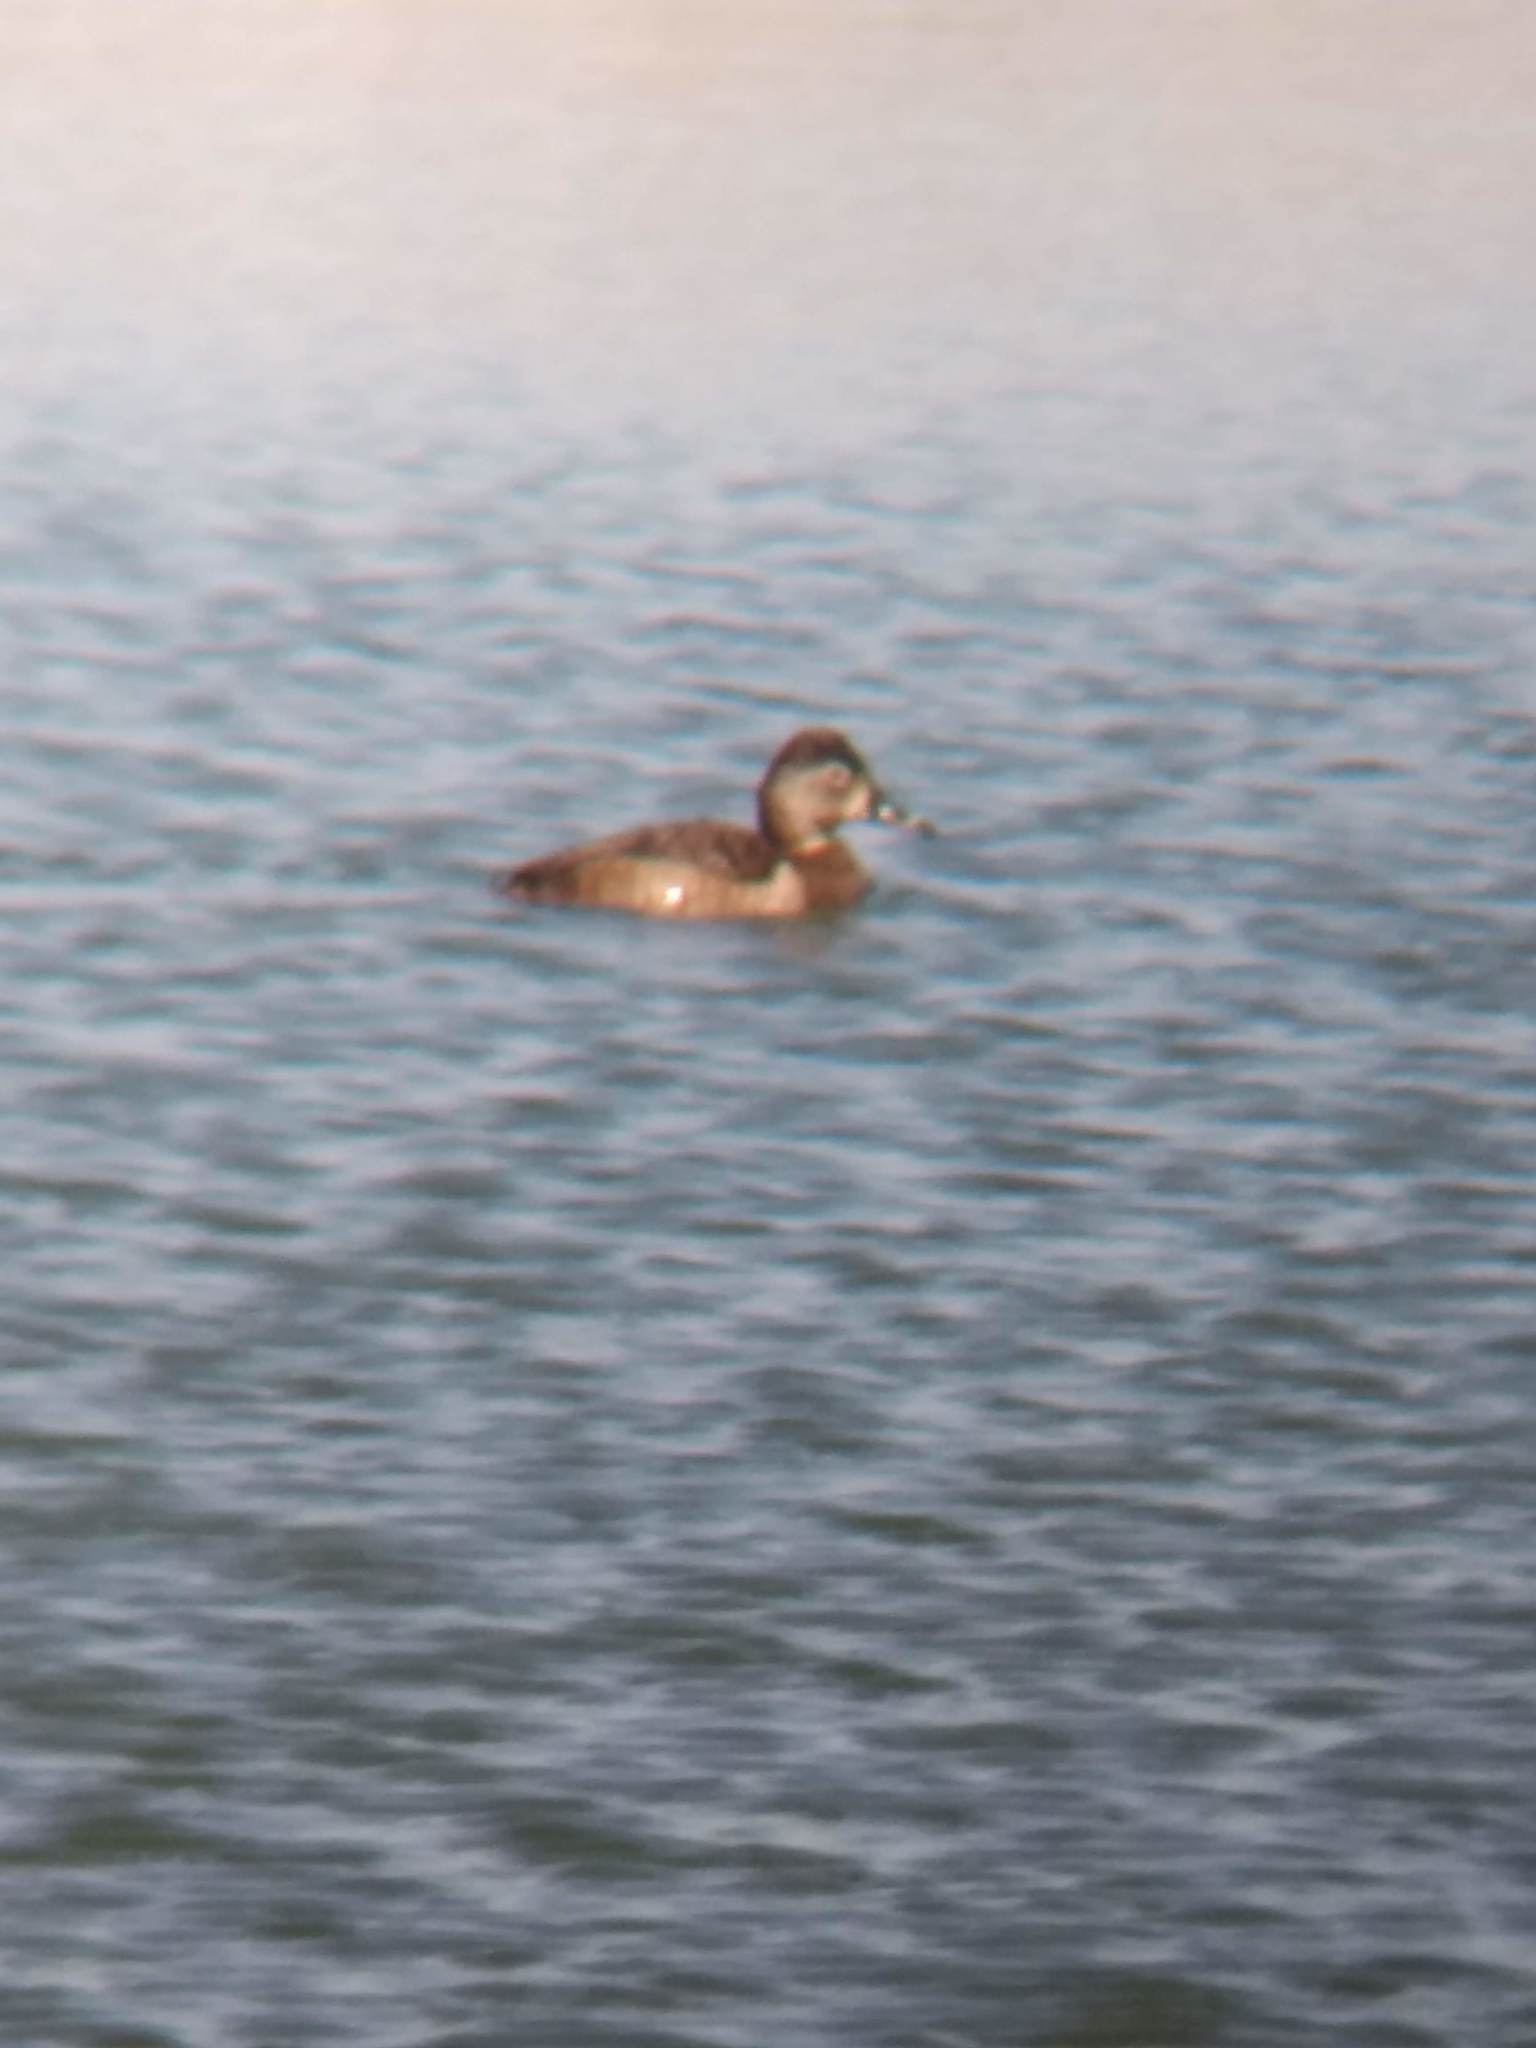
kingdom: Animalia
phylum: Chordata
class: Aves
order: Anseriformes
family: Anatidae
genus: Aythya
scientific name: Aythya collaris
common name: Ring-necked duck
